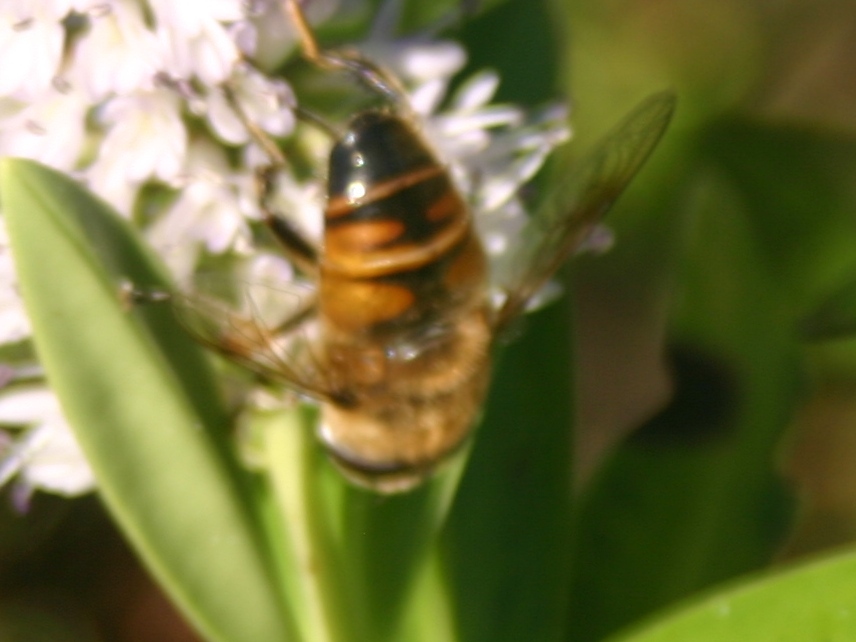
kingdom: Animalia
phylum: Arthropoda
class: Insecta
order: Diptera
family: Syrphidae
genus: Eristalis
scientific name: Eristalis tenax
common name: Drone fly
